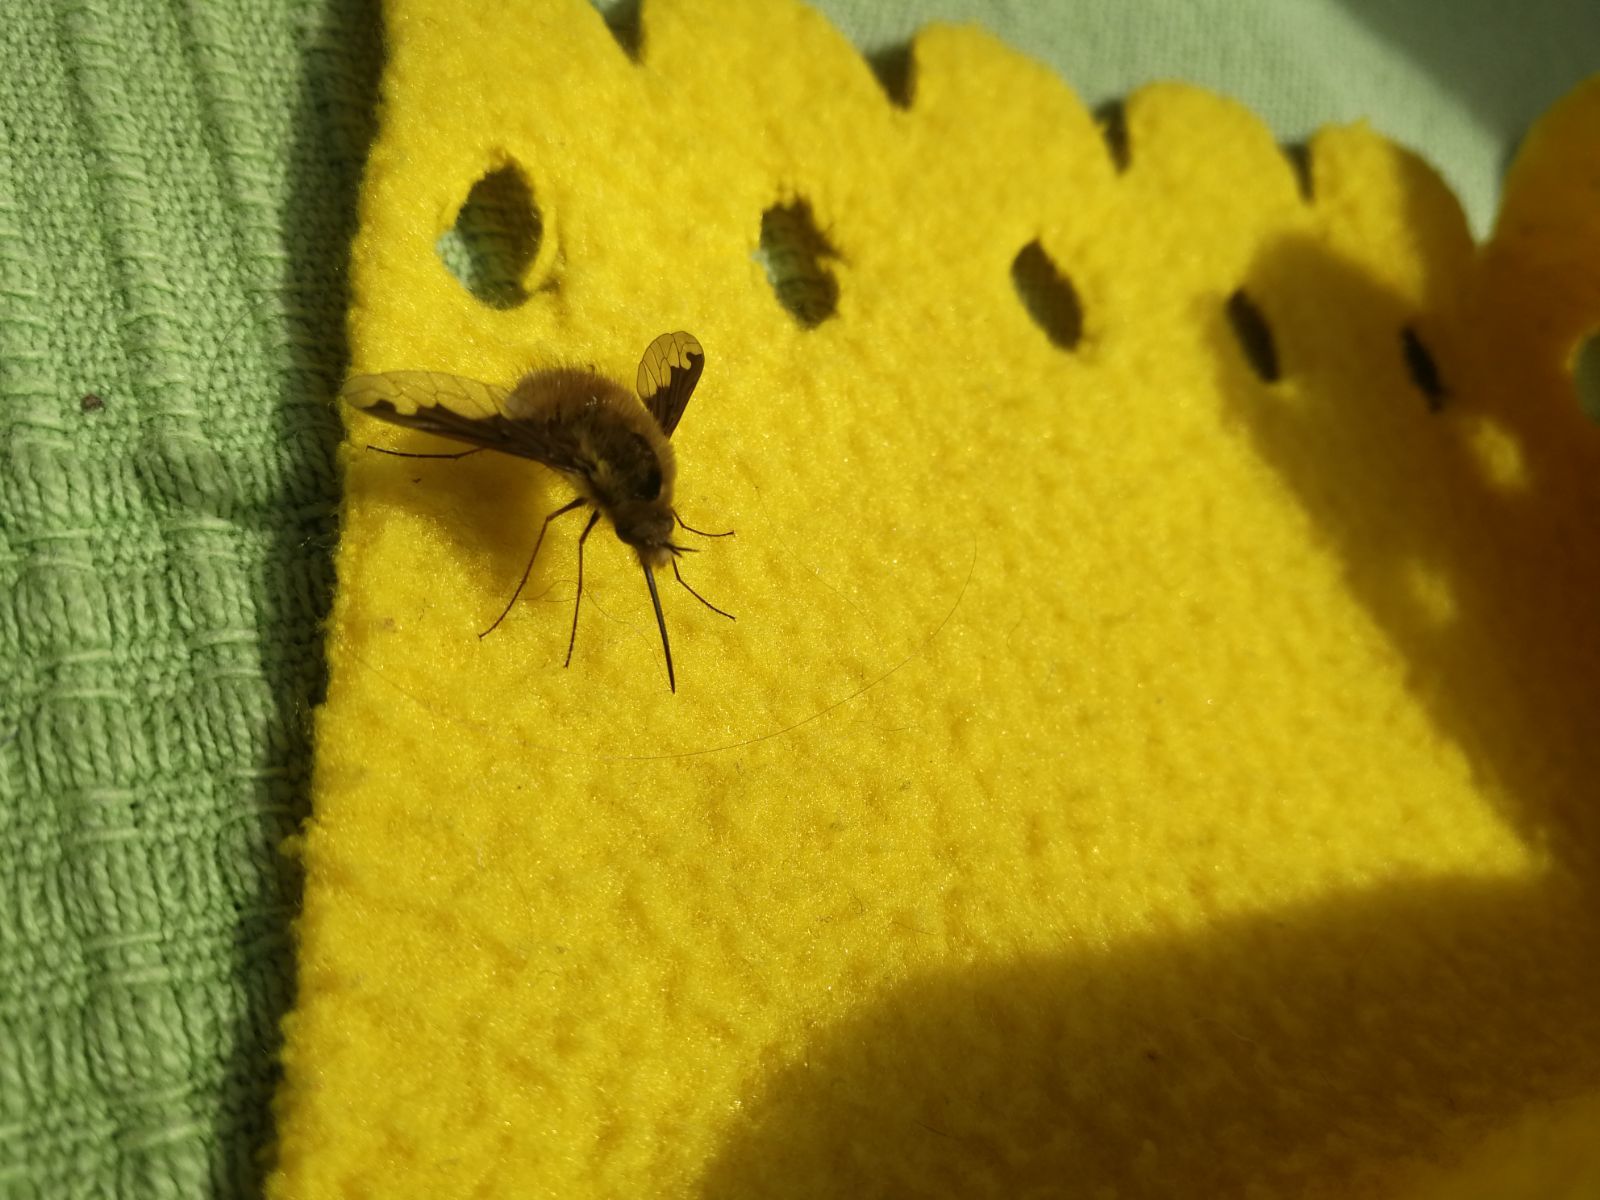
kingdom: Animalia
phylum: Arthropoda
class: Insecta
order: Diptera
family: Bombyliidae
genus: Bombylius
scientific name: Bombylius major
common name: Bee fly
